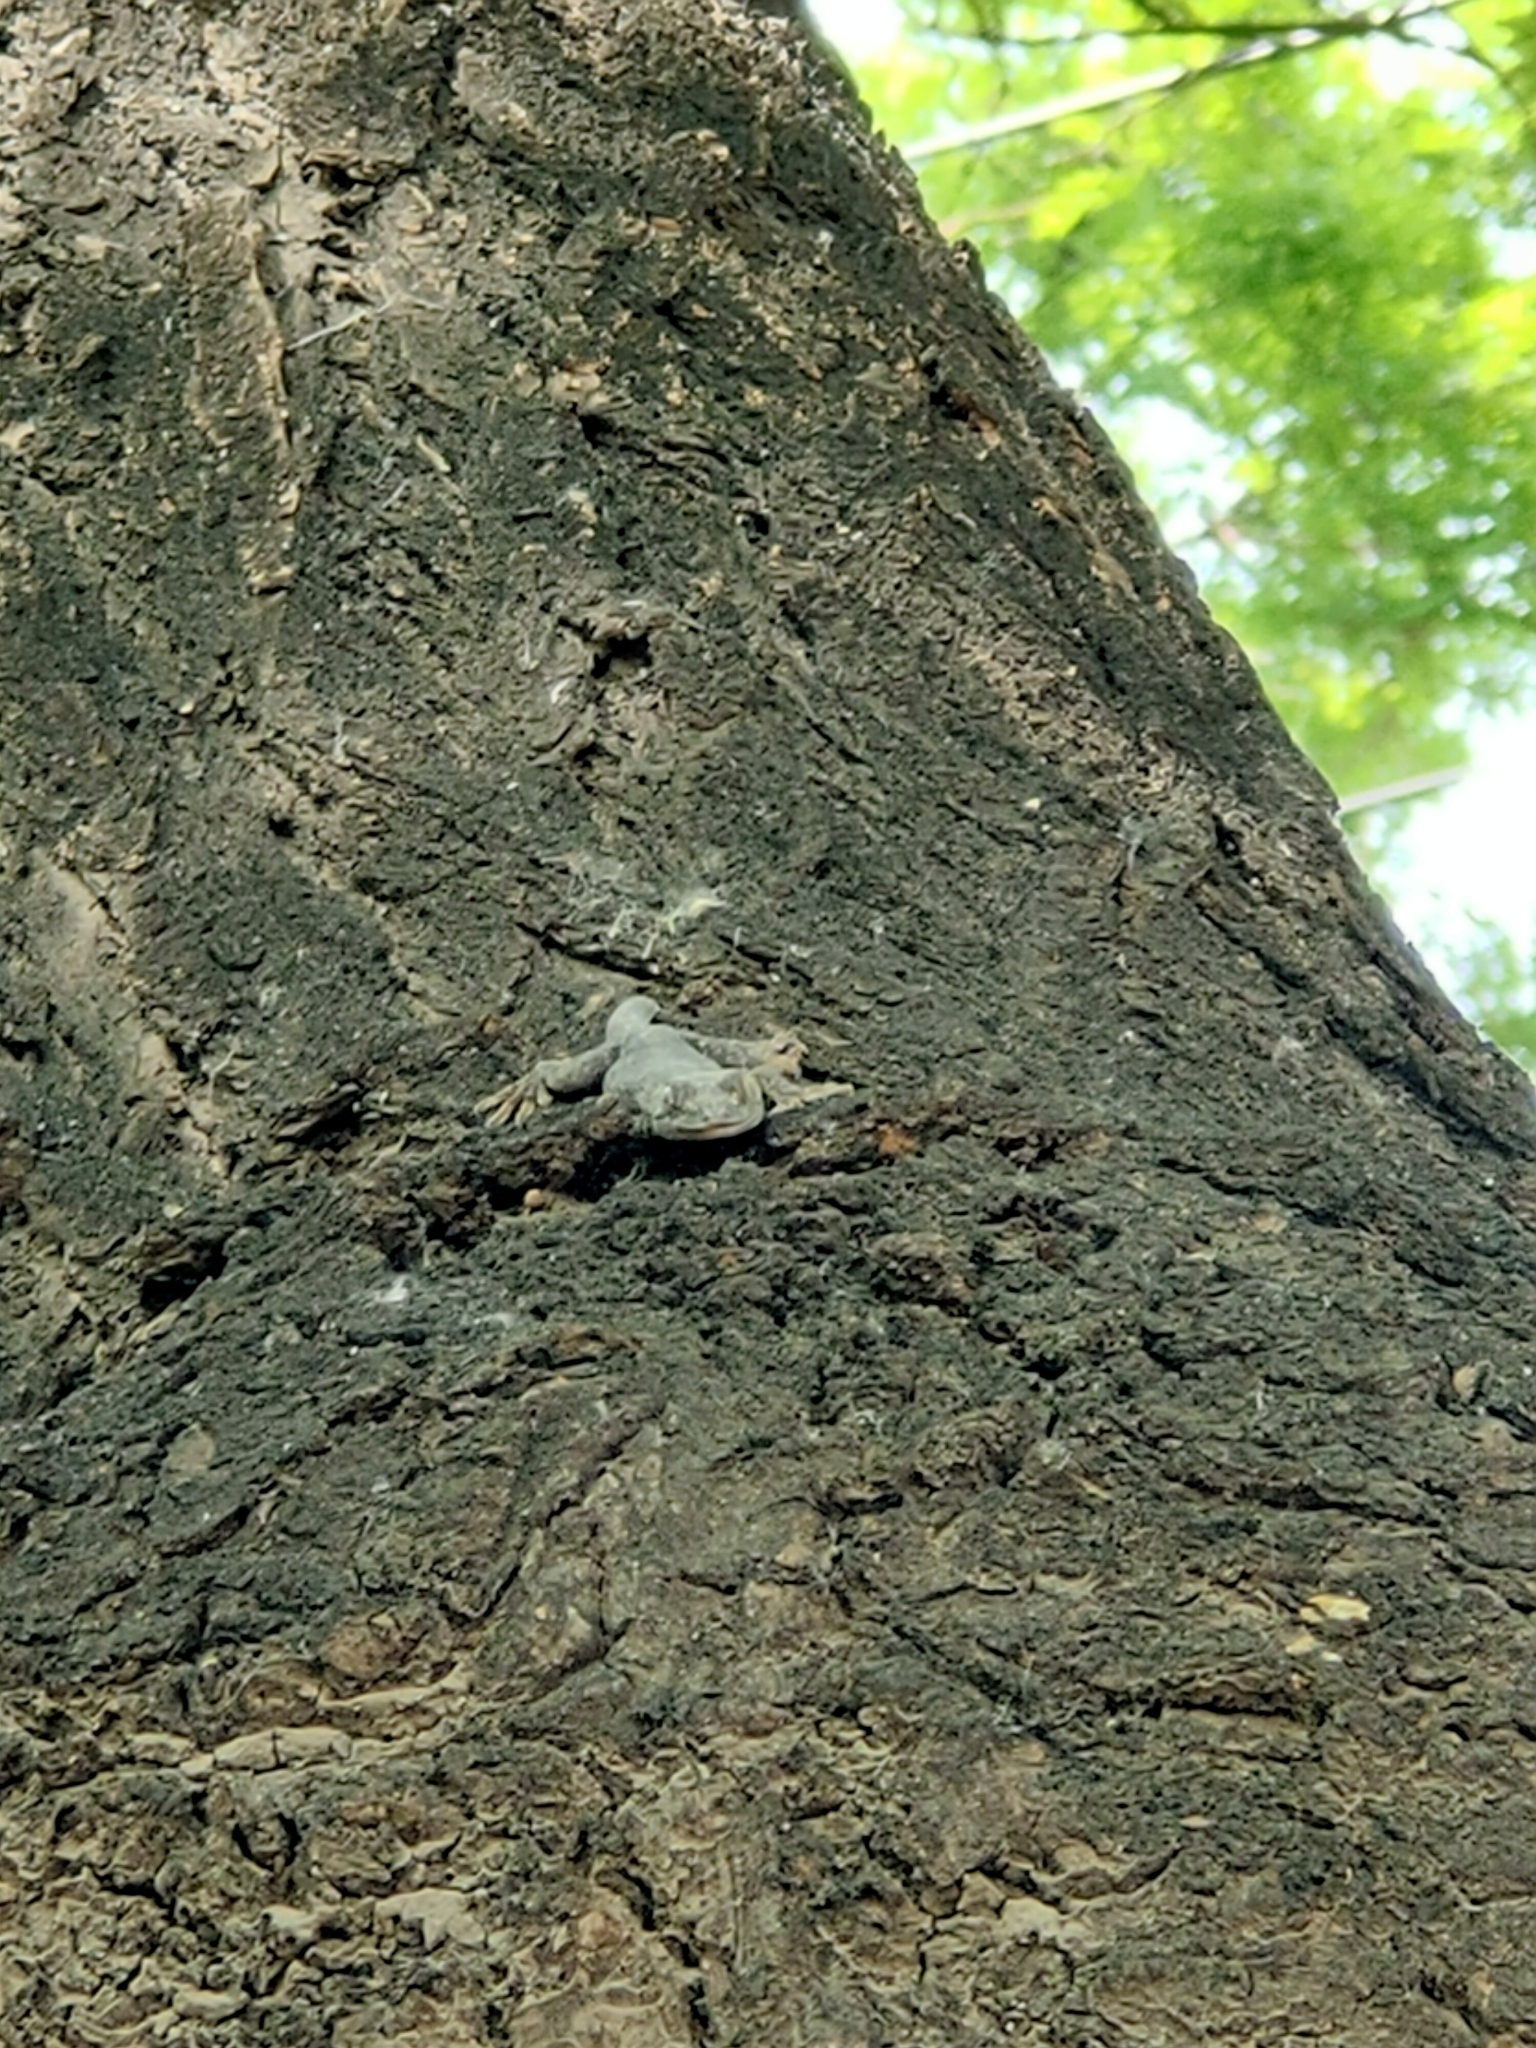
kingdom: Animalia
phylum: Chordata
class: Squamata
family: Gekkonidae
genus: Gekko
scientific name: Gekko swinhonis
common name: Peking gecko
